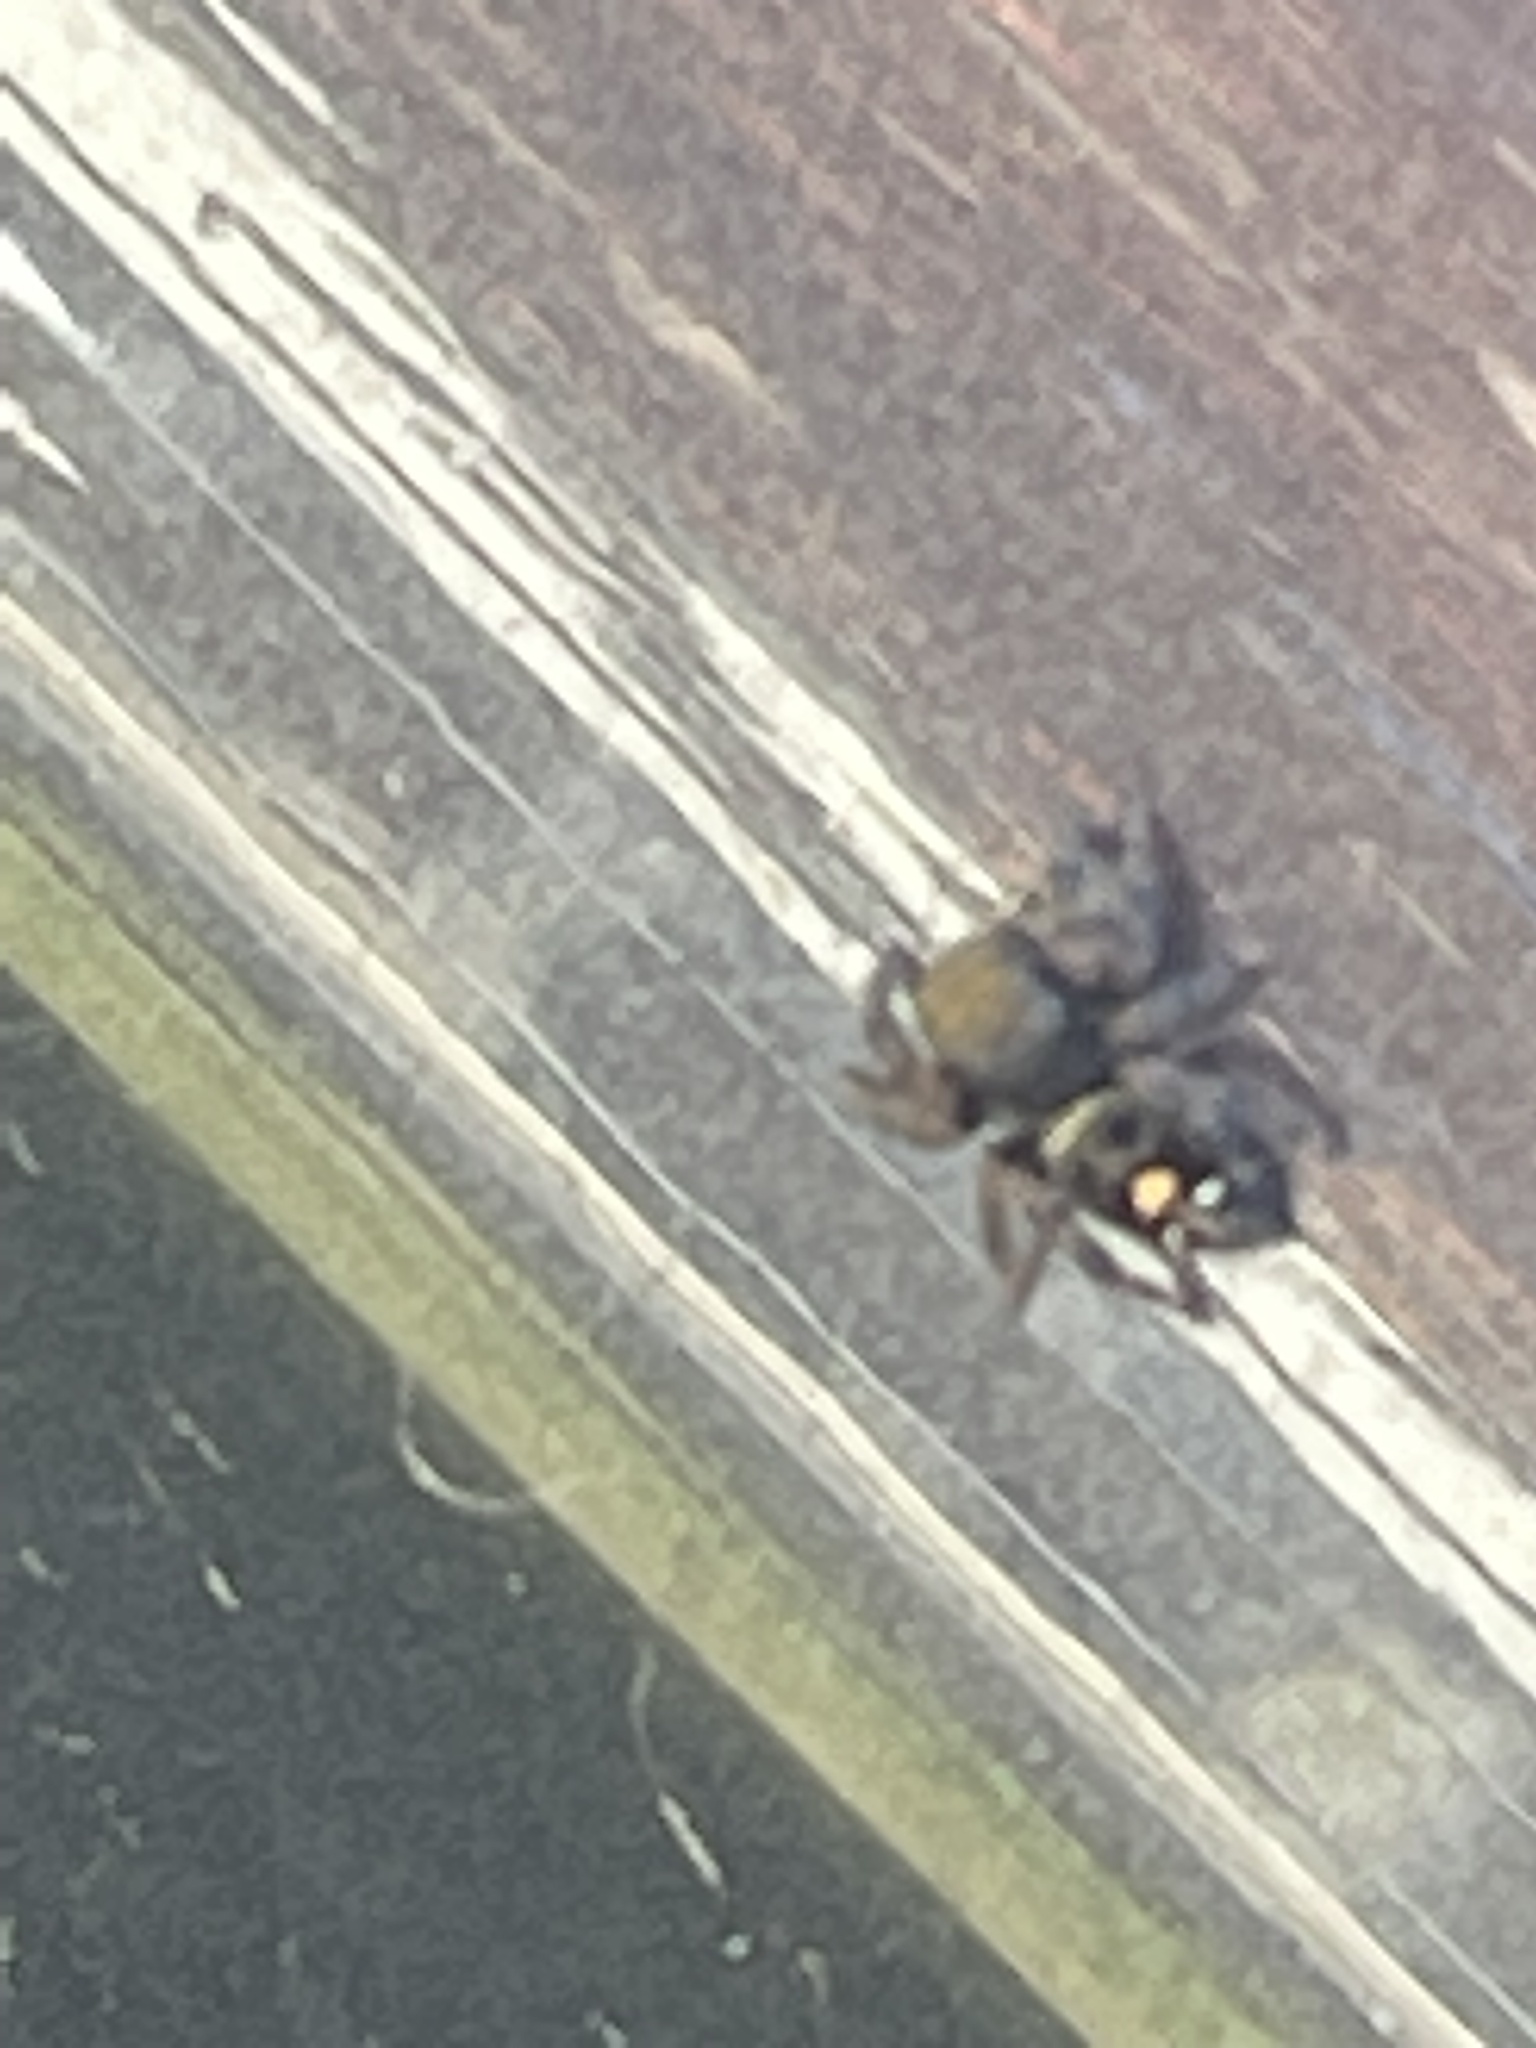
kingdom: Animalia
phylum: Arthropoda
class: Arachnida
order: Araneae
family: Salticidae
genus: Phidippus
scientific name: Phidippus audax
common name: Bold jumper
